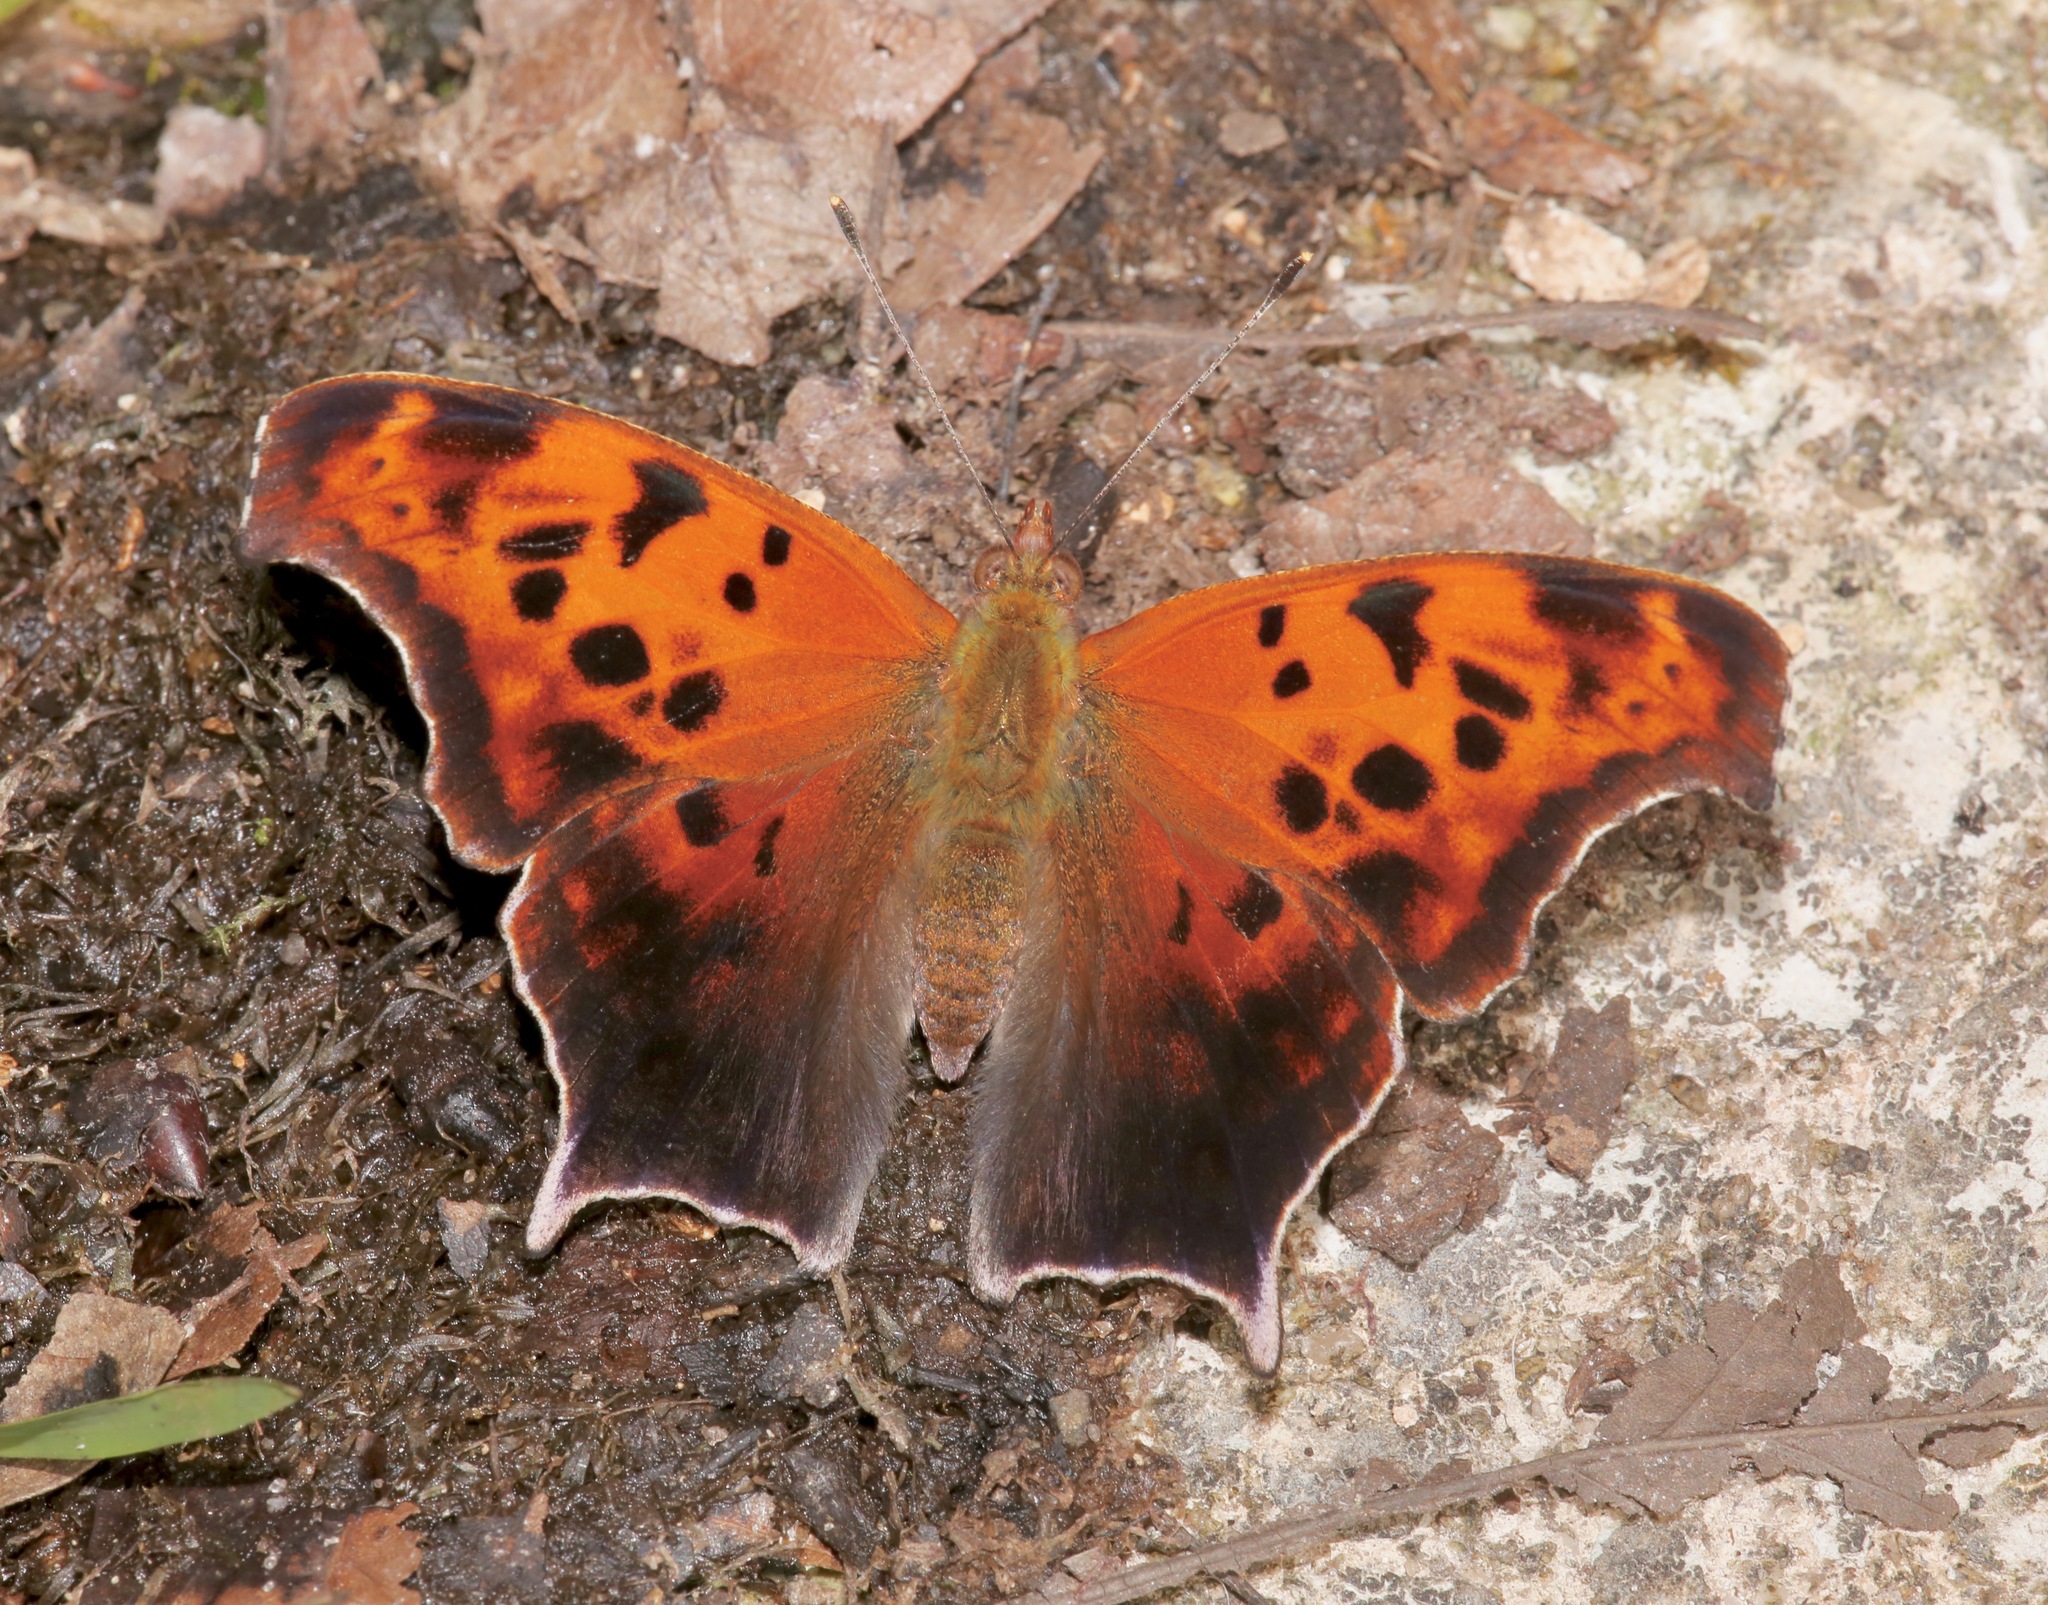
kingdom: Animalia
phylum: Arthropoda
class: Insecta
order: Lepidoptera
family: Nymphalidae
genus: Polygonia
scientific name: Polygonia interrogationis
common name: Question mark
